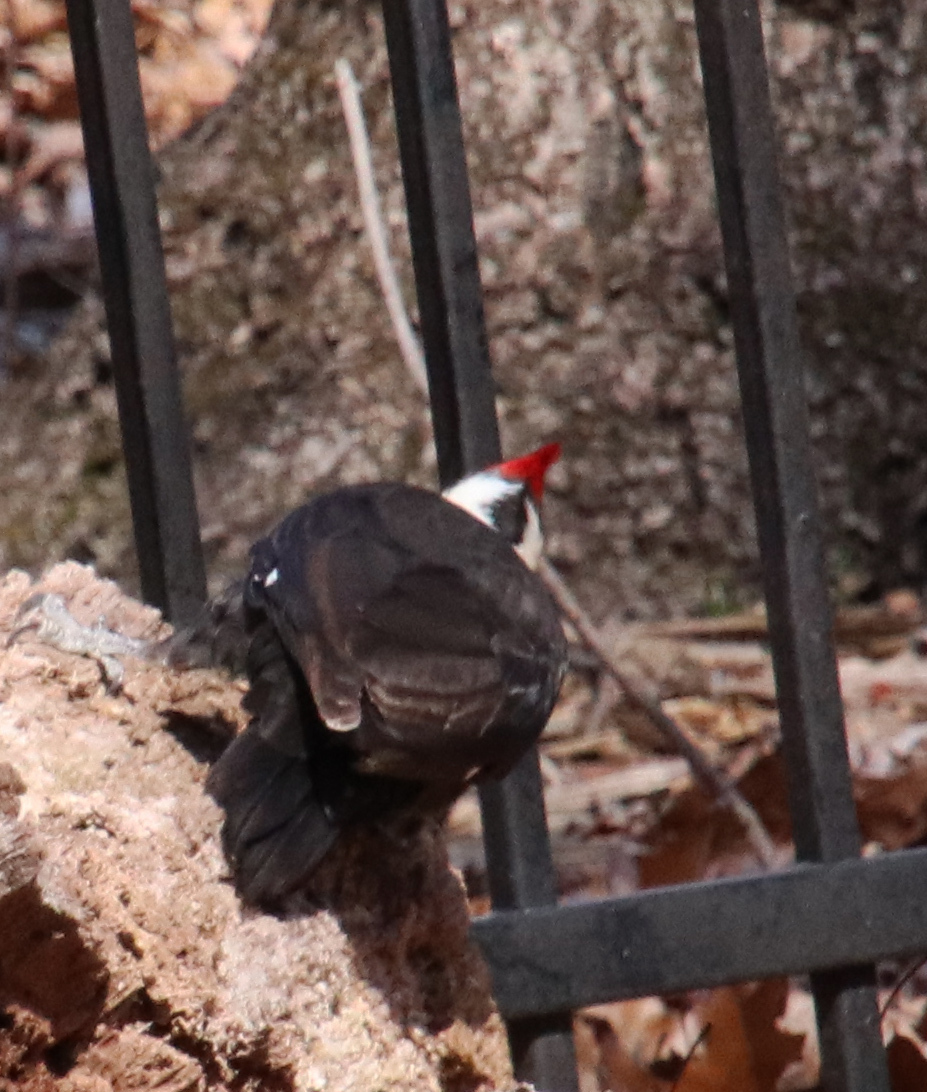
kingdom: Animalia
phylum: Chordata
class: Aves
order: Piciformes
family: Picidae
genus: Dryocopus
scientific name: Dryocopus pileatus
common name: Pileated woodpecker
